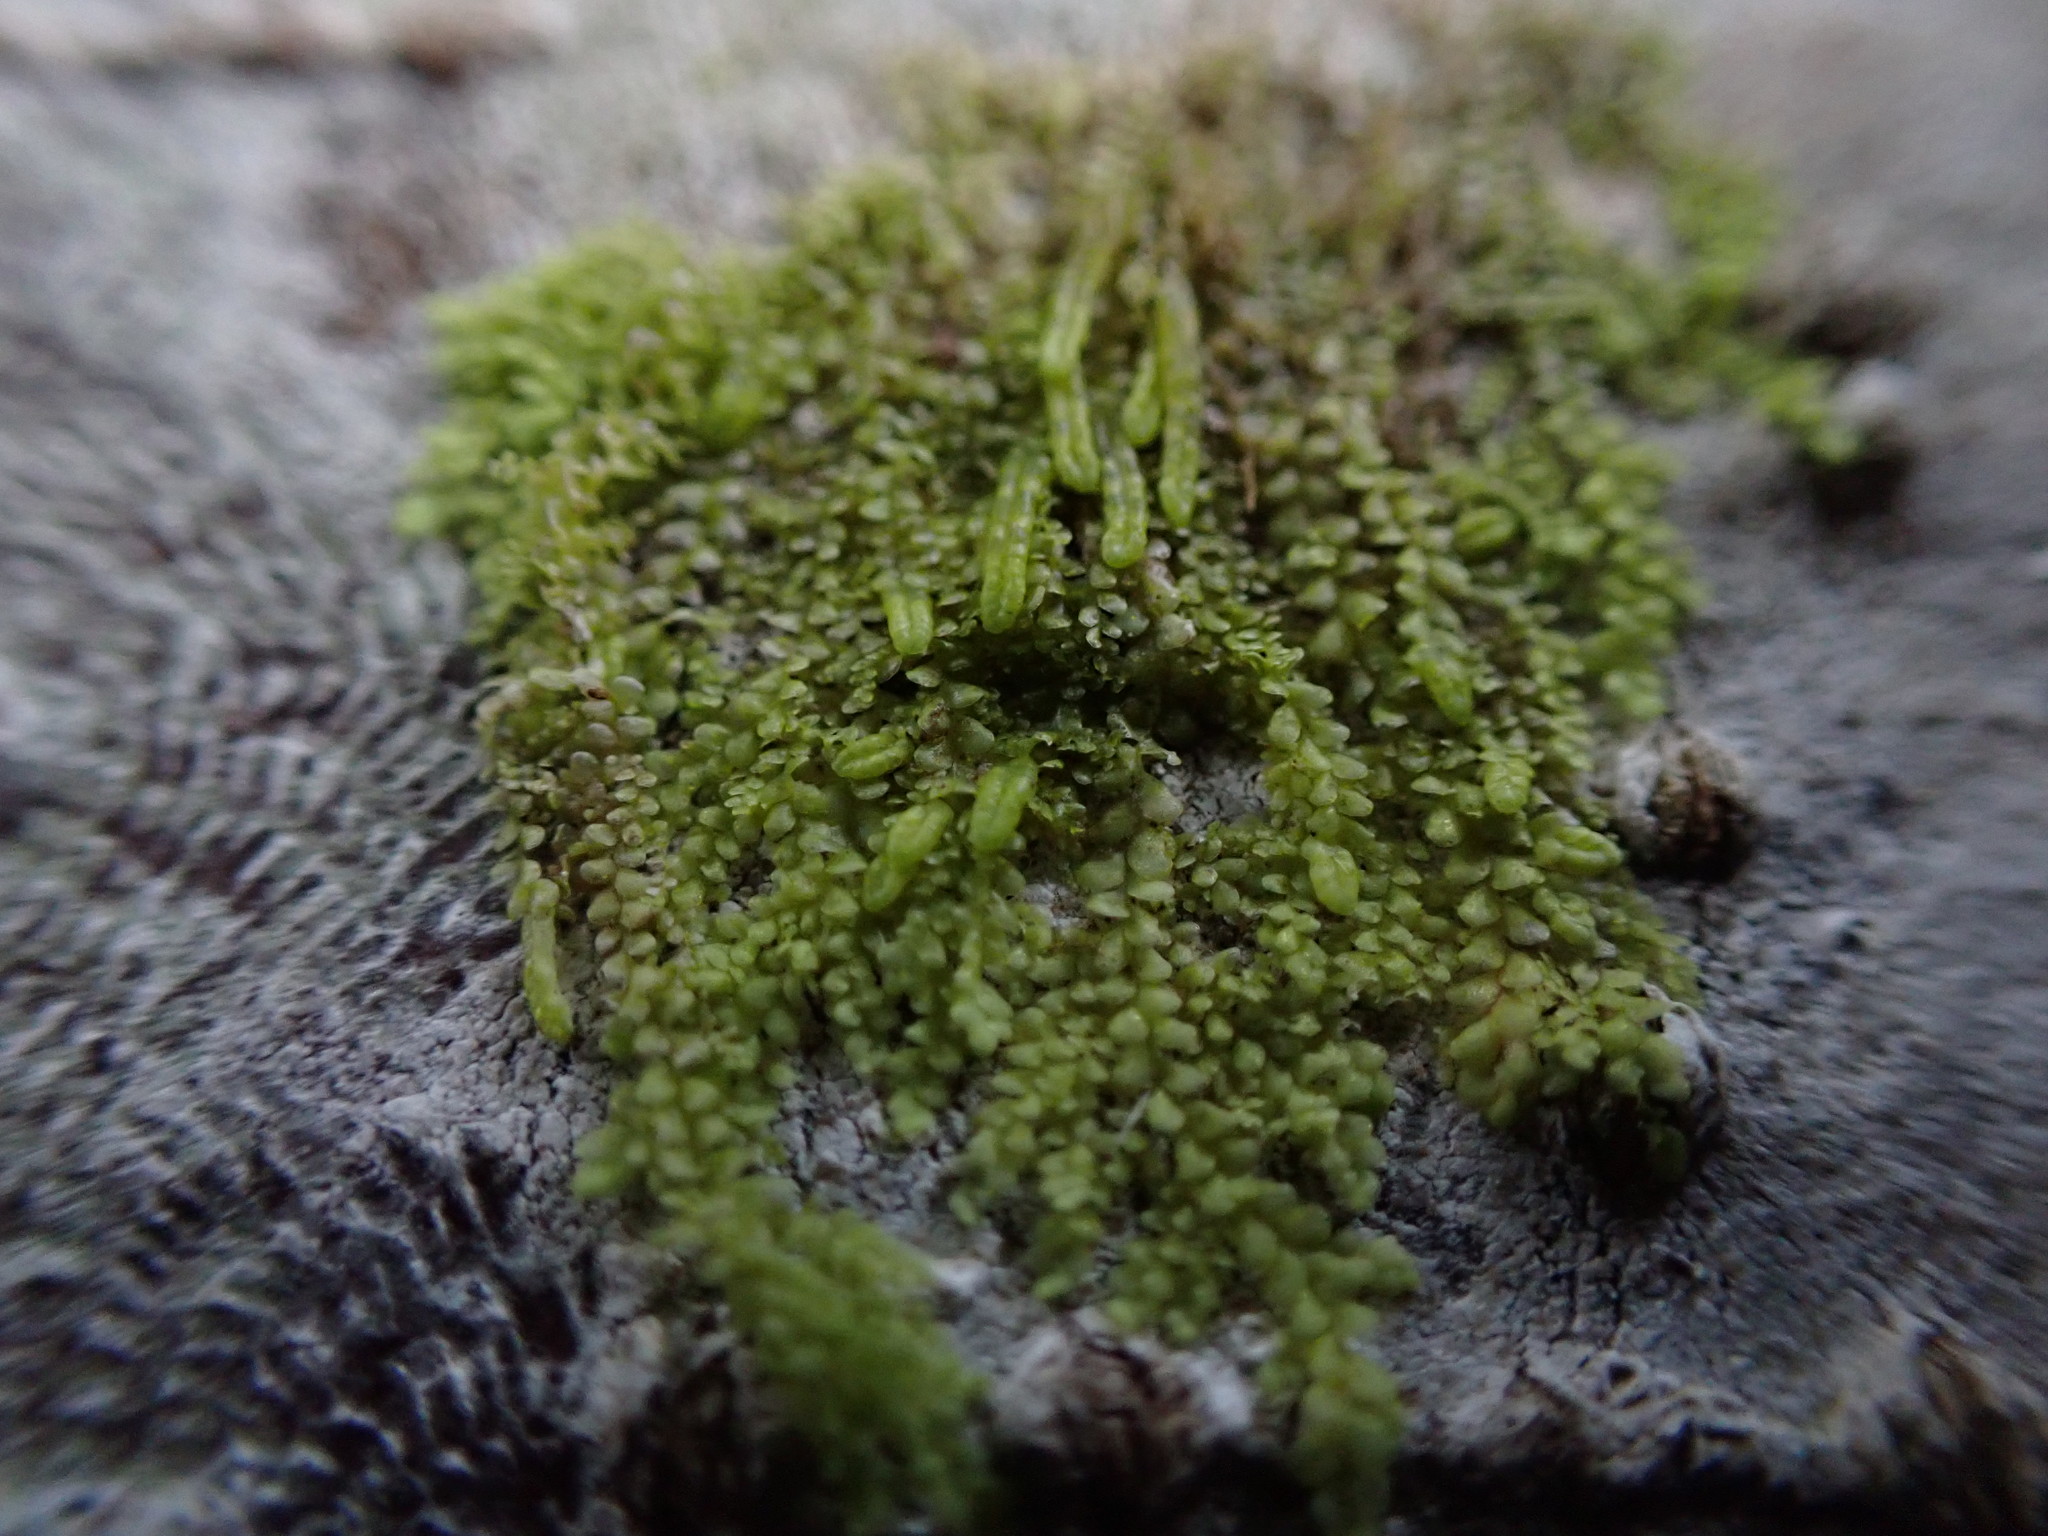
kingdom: Plantae
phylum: Marchantiophyta
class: Jungermanniopsida
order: Porellales
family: Radulaceae
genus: Radula
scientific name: Radula bolanderi
